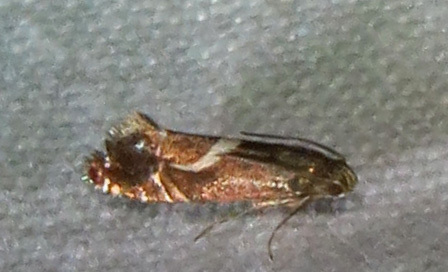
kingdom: Animalia
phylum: Arthropoda
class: Insecta
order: Lepidoptera
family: Glyphipterigidae
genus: Glyphipterix
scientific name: Glyphipterix Diploschizia impigritella
